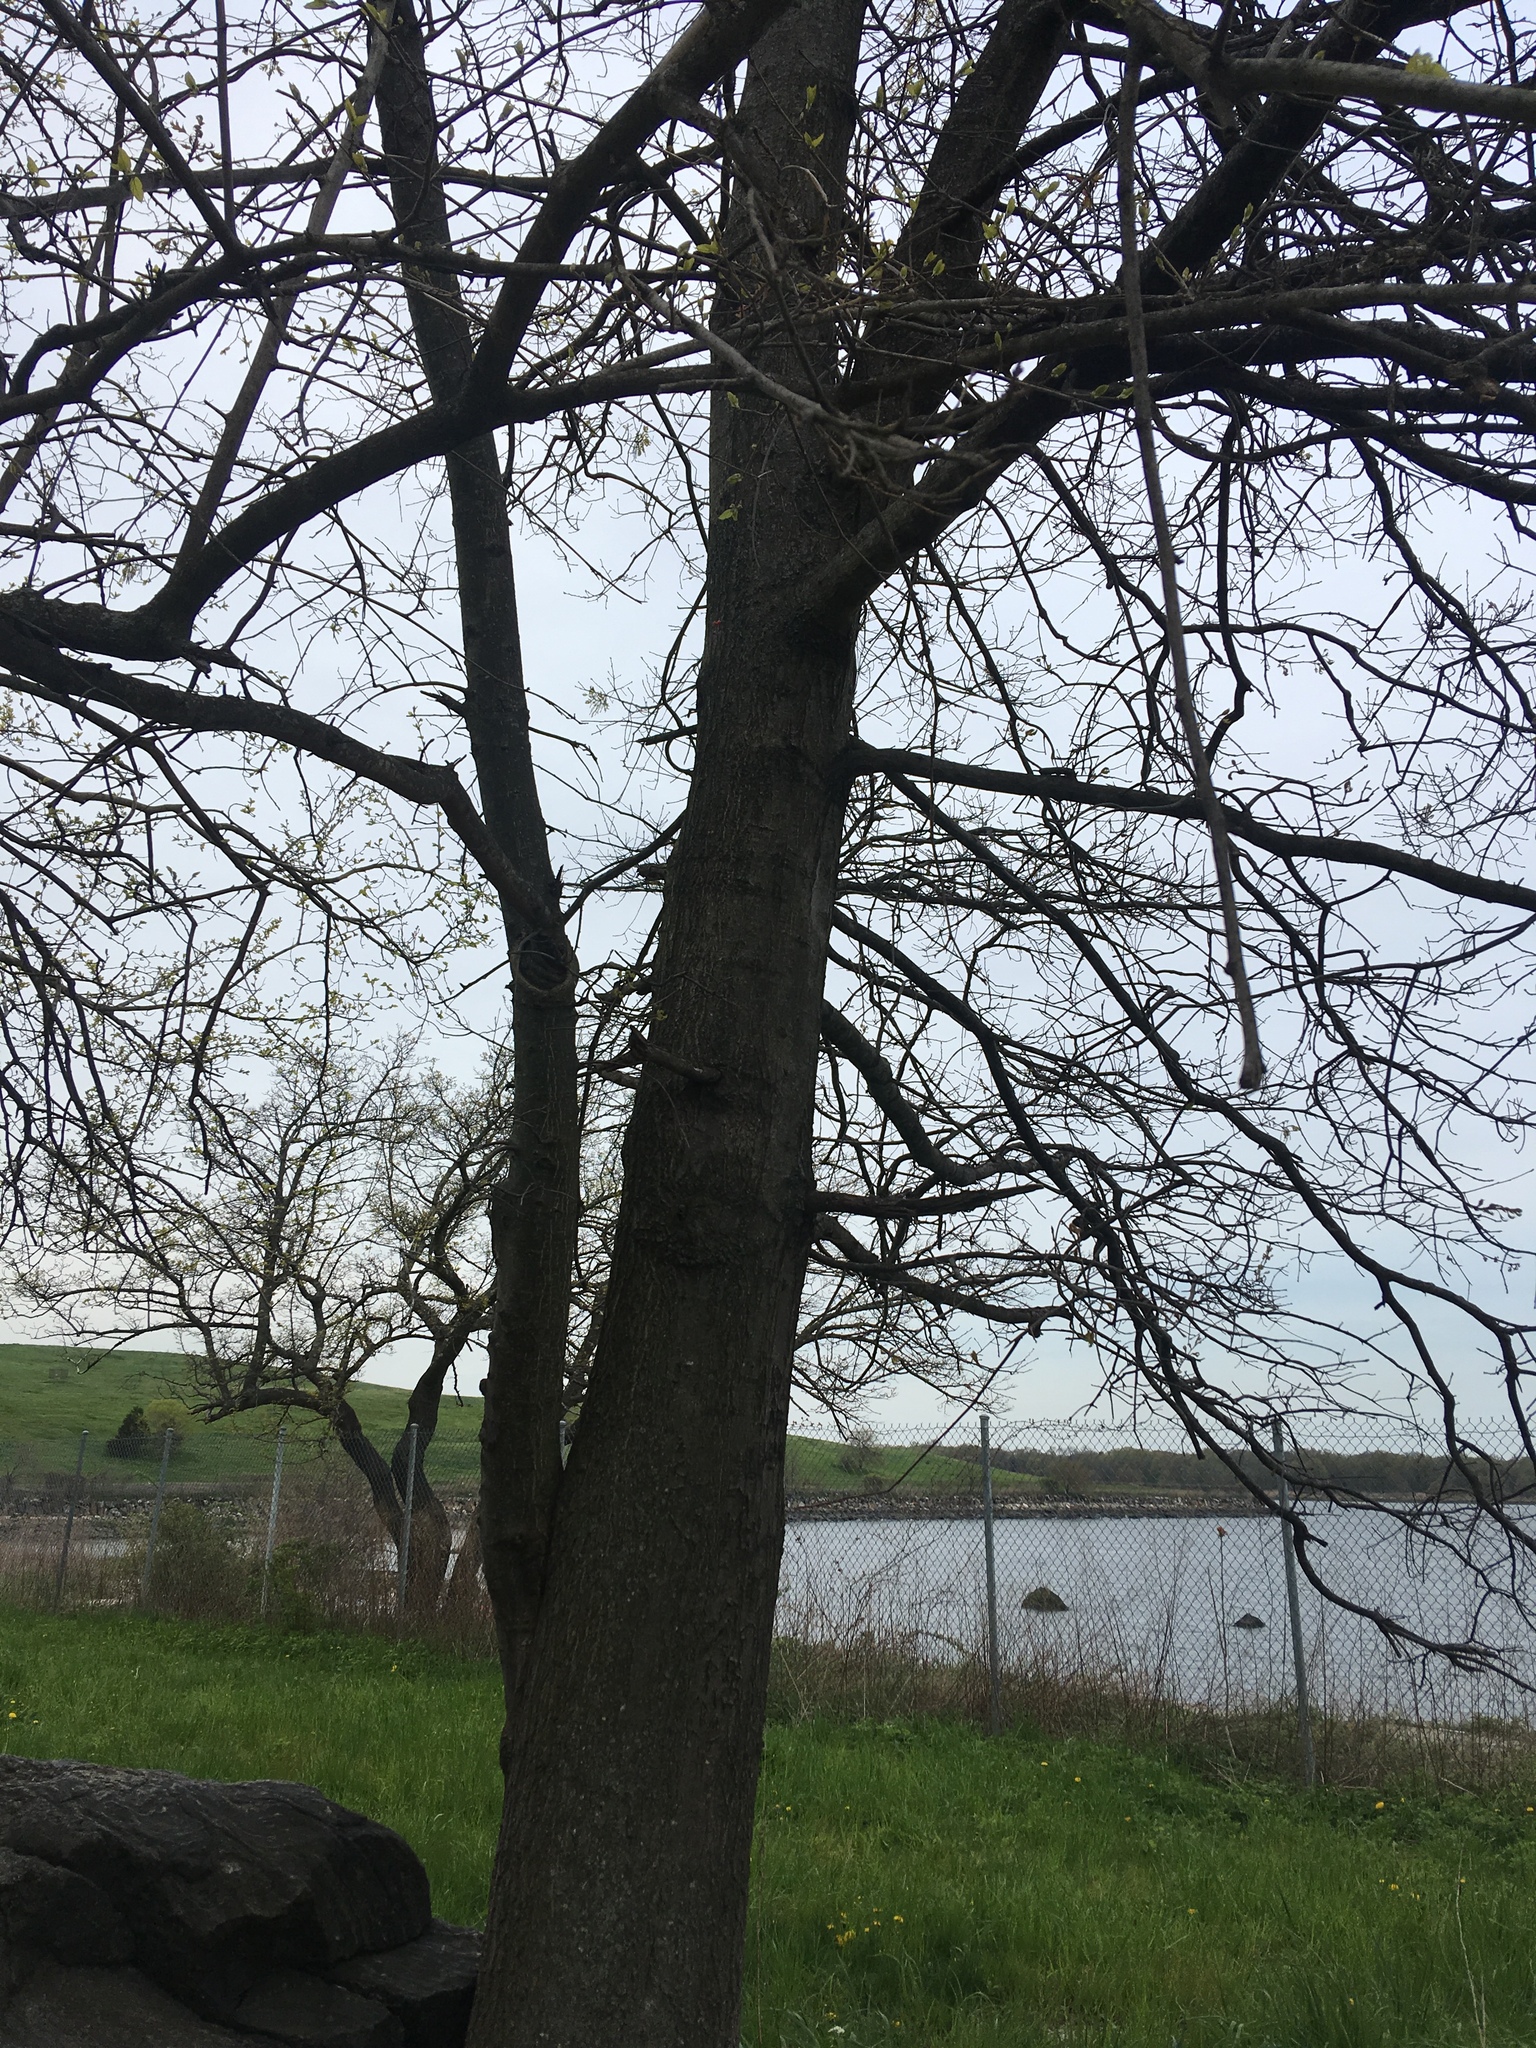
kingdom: Plantae
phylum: Tracheophyta
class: Magnoliopsida
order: Fagales
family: Fagaceae
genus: Quercus
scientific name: Quercus palustris
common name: Pin oak
